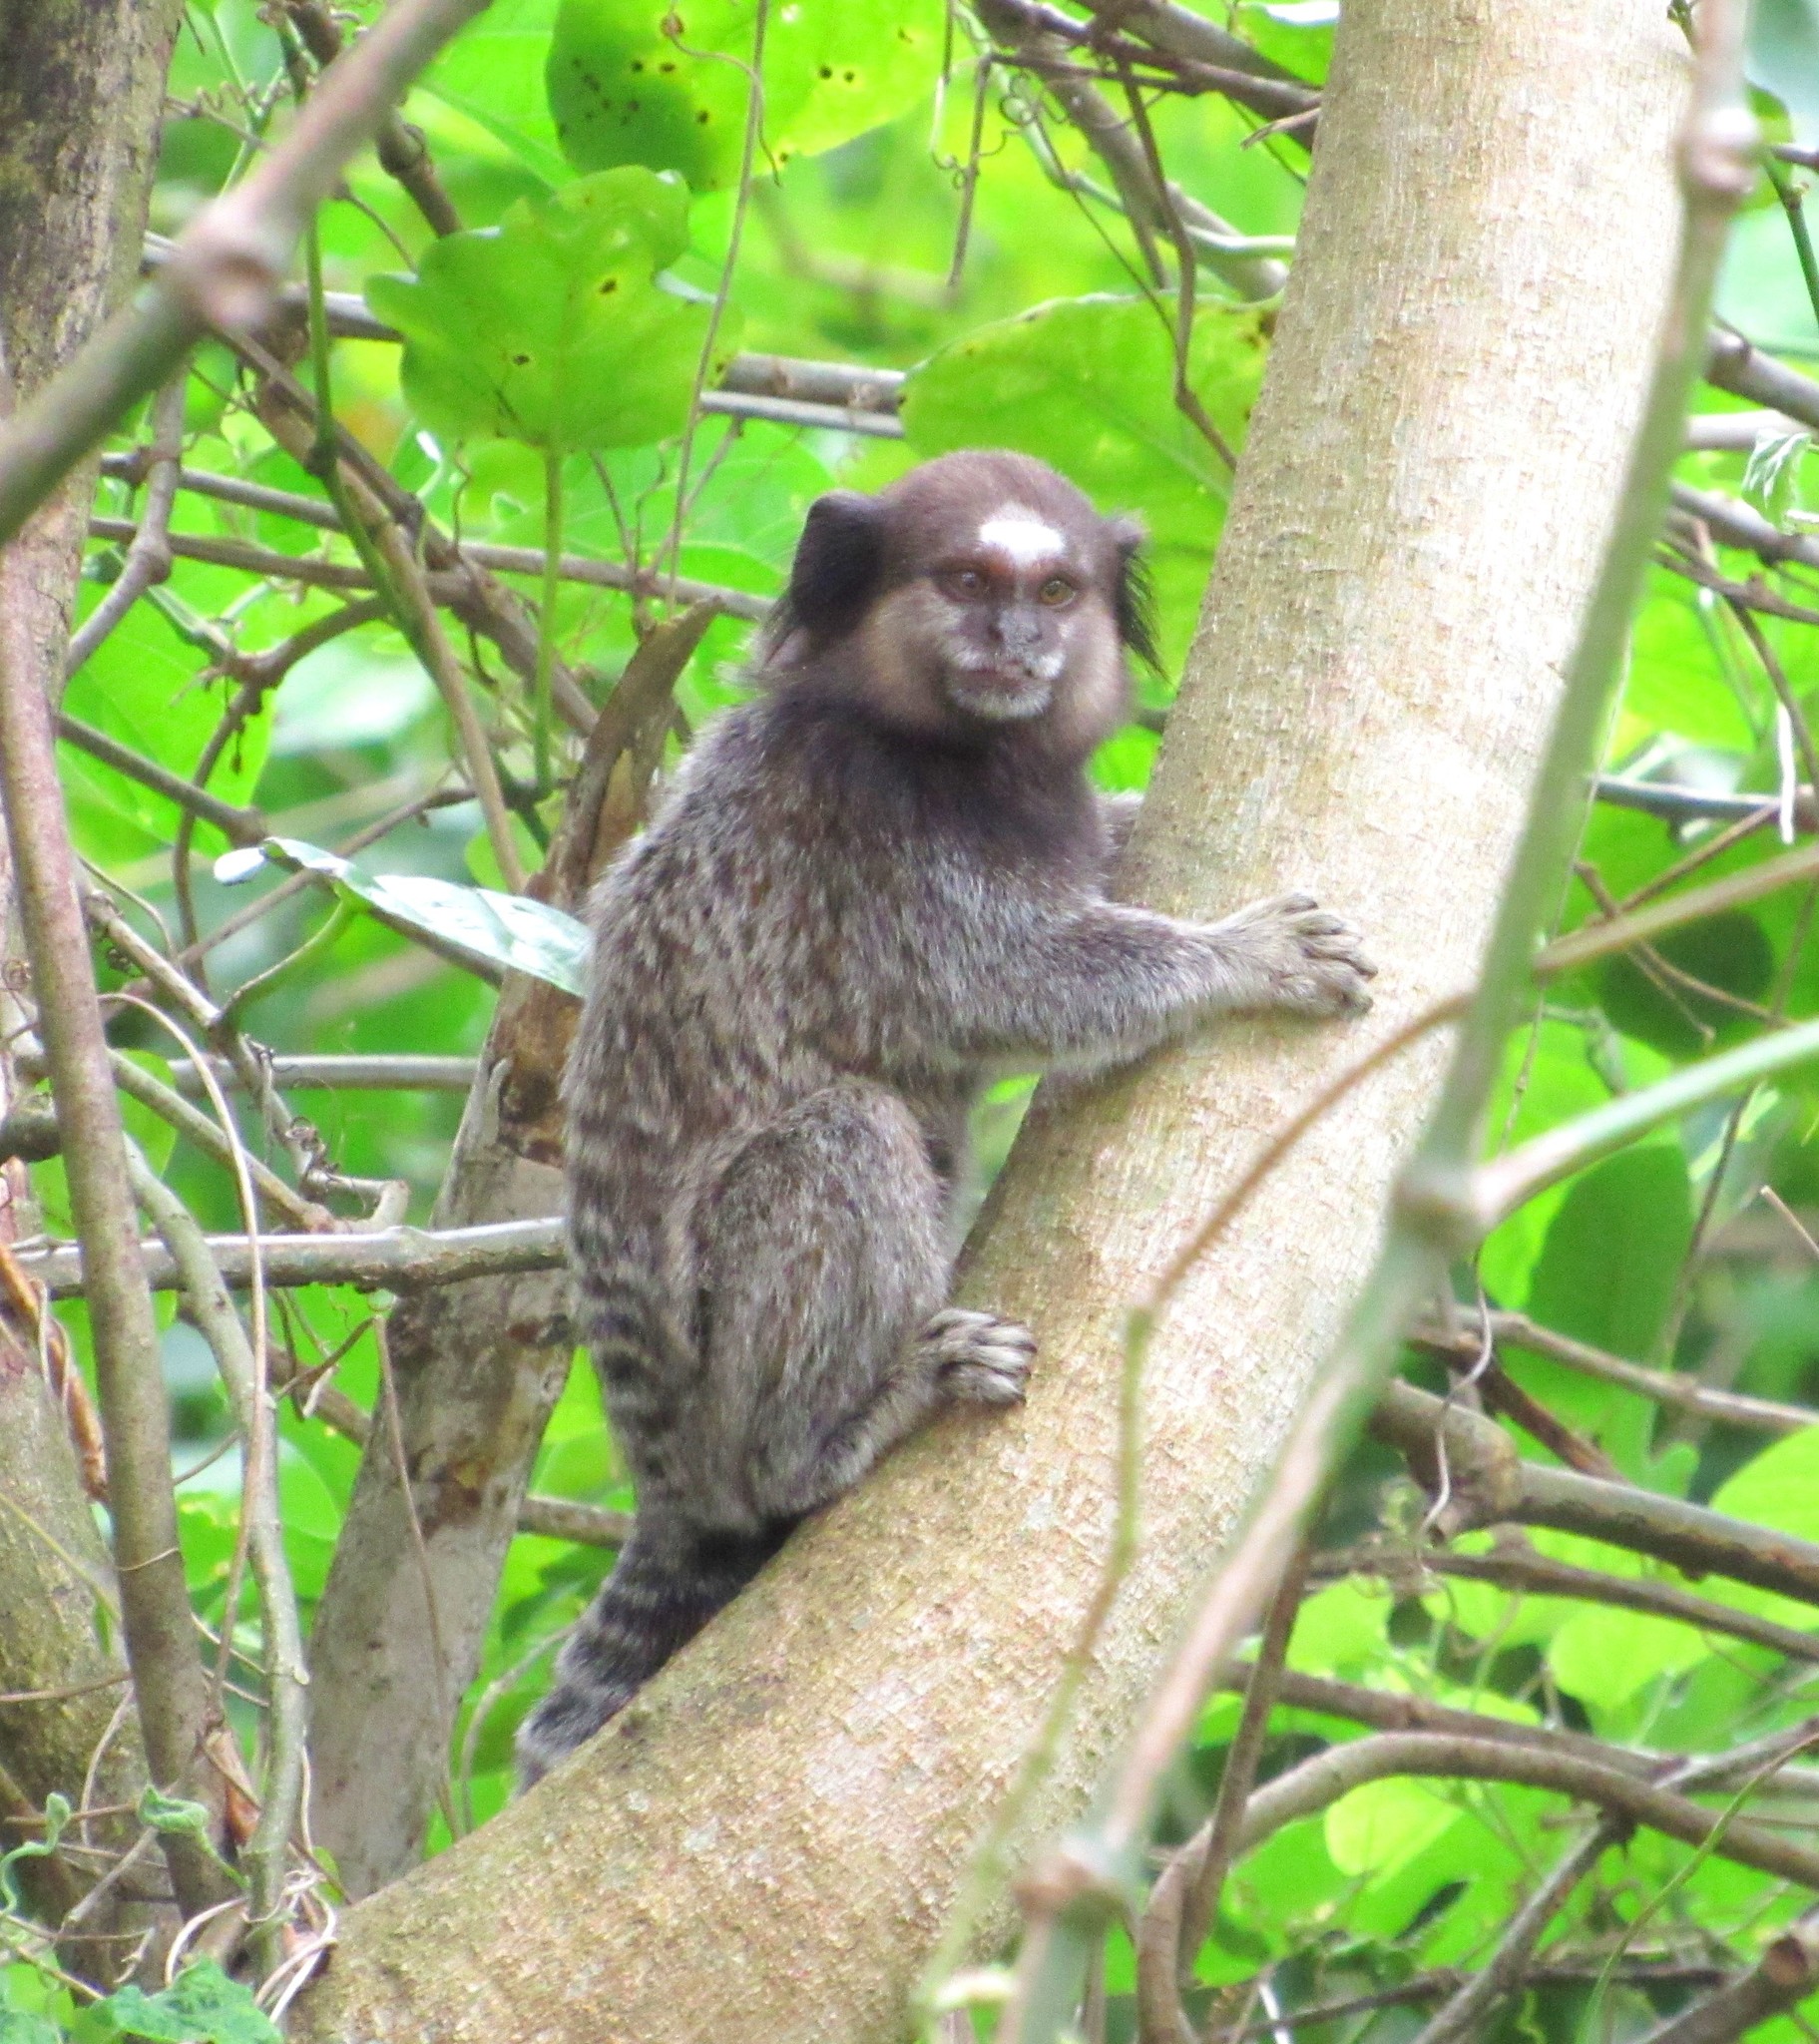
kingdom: Animalia
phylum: Chordata
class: Mammalia
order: Primates
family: Callitrichidae
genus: Callithrix
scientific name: Callithrix penicillata
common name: Black-tufted marmoset
